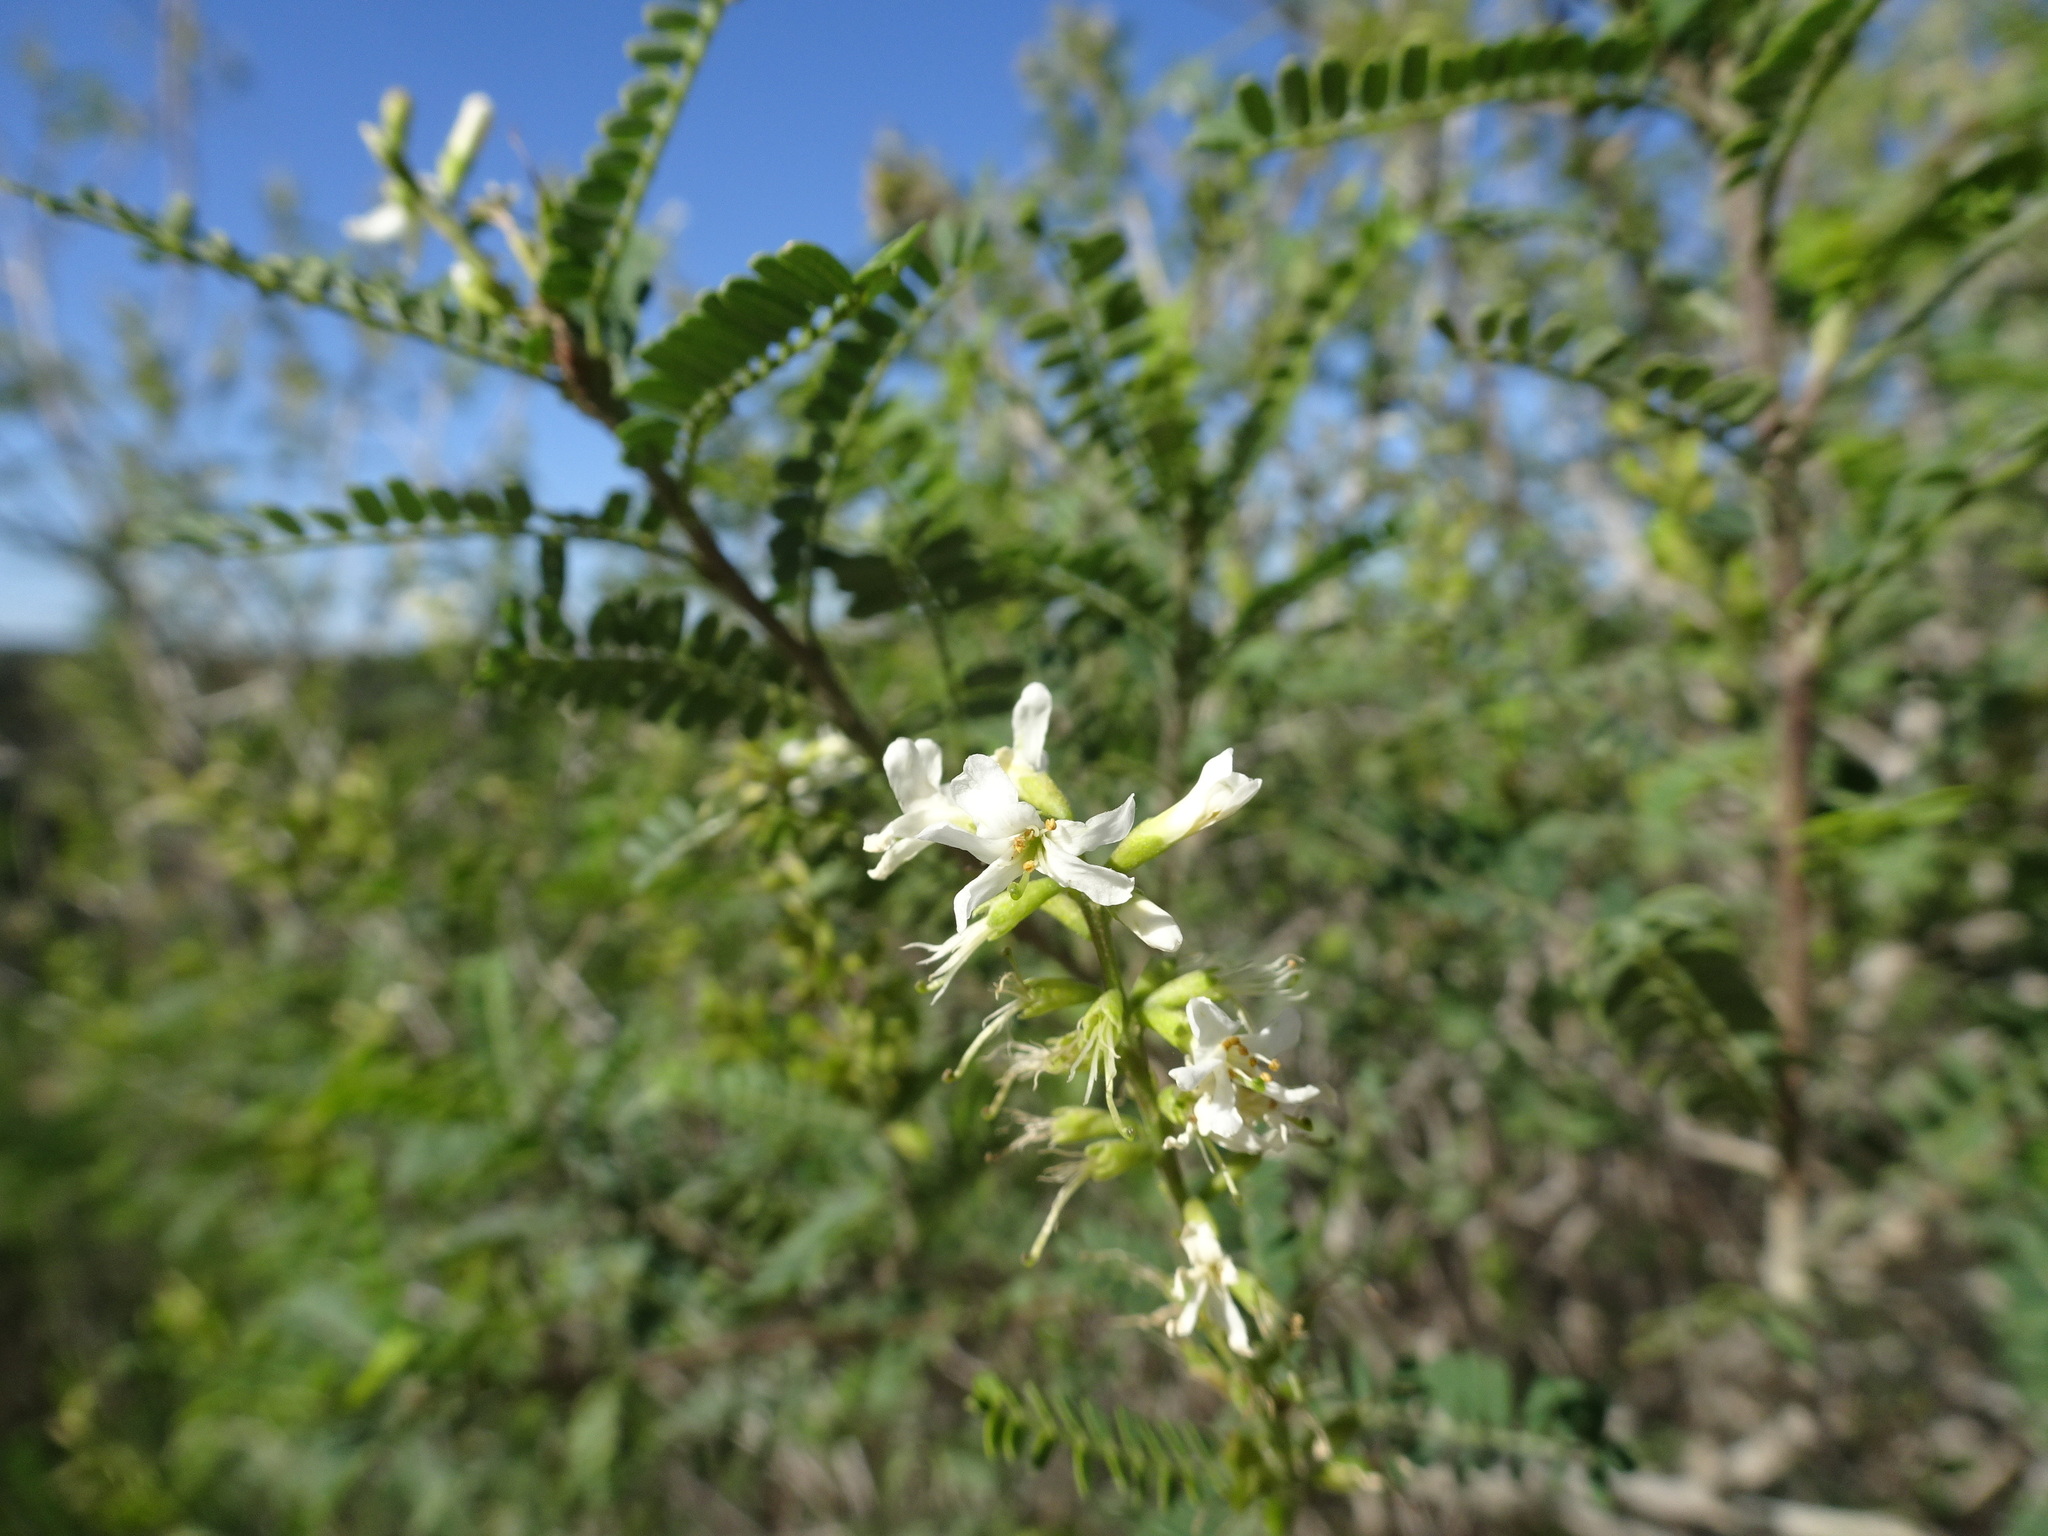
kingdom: Plantae
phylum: Tracheophyta
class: Magnoliopsida
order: Fabales
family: Fabaceae
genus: Eysenhardtia
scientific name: Eysenhardtia texana
